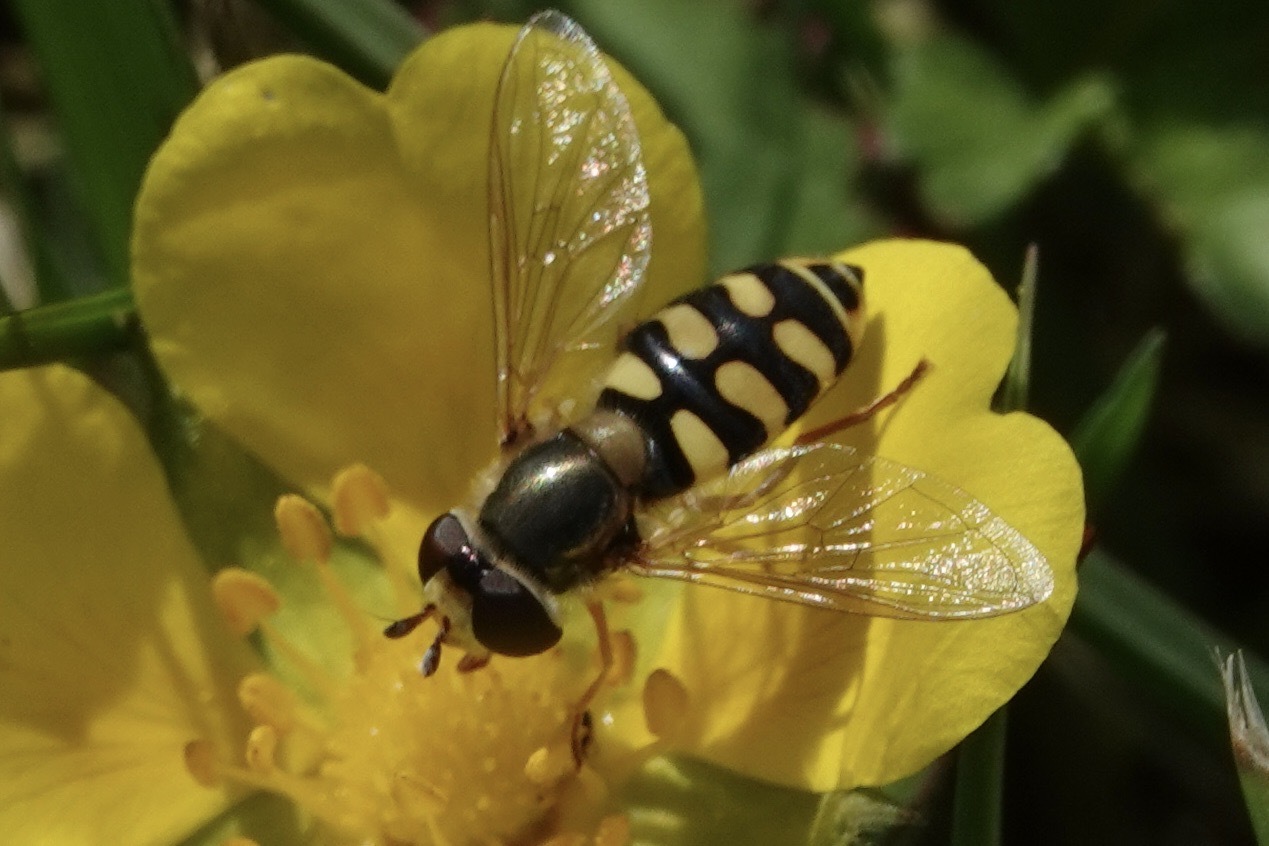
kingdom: Animalia
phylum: Arthropoda
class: Insecta
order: Diptera
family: Syrphidae
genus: Eupeodes
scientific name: Eupeodes corollae
